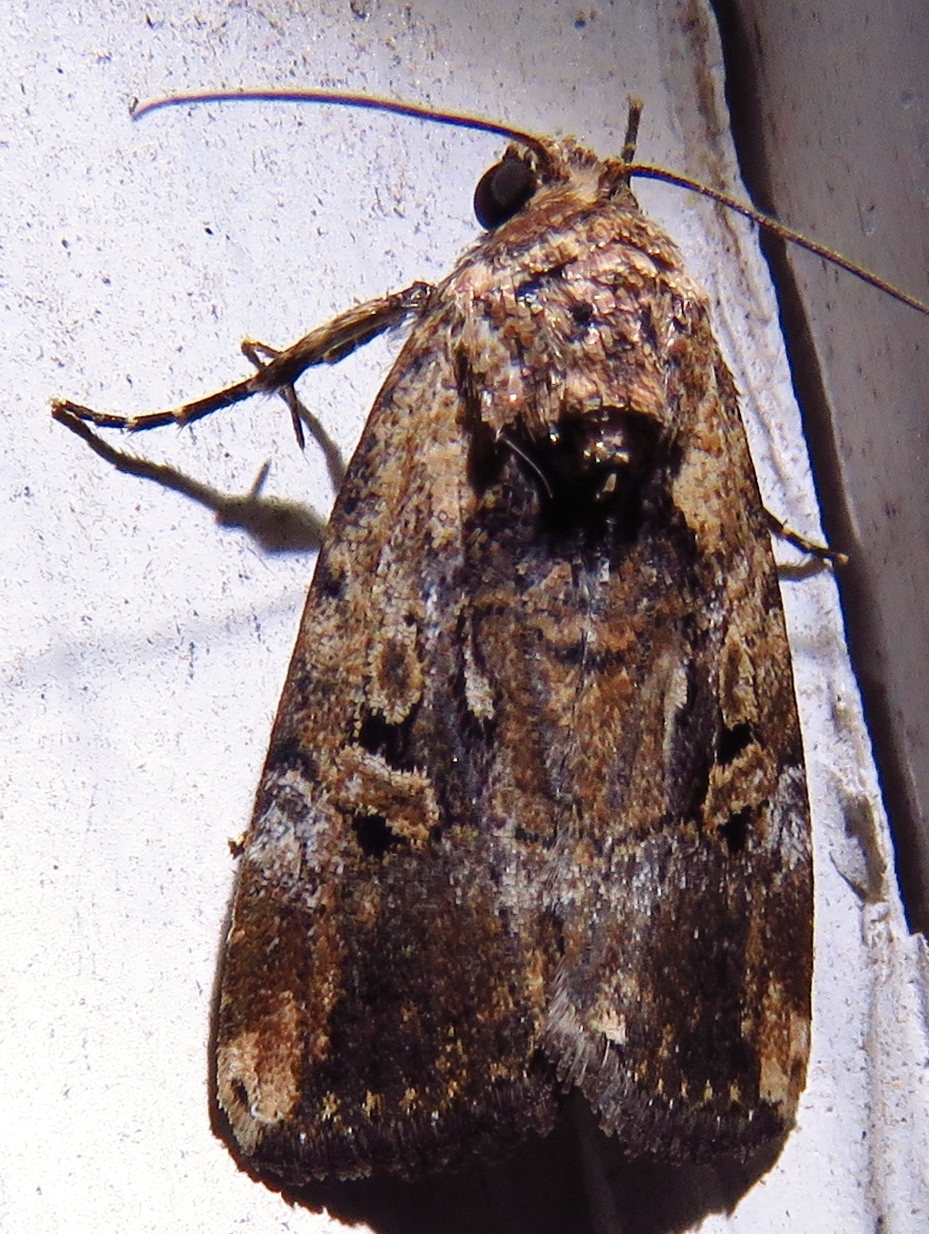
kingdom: Animalia
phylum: Arthropoda
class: Insecta
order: Lepidoptera
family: Noctuidae
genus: Elaphria
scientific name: Elaphria chalcedonia
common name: Chalcedony midget
